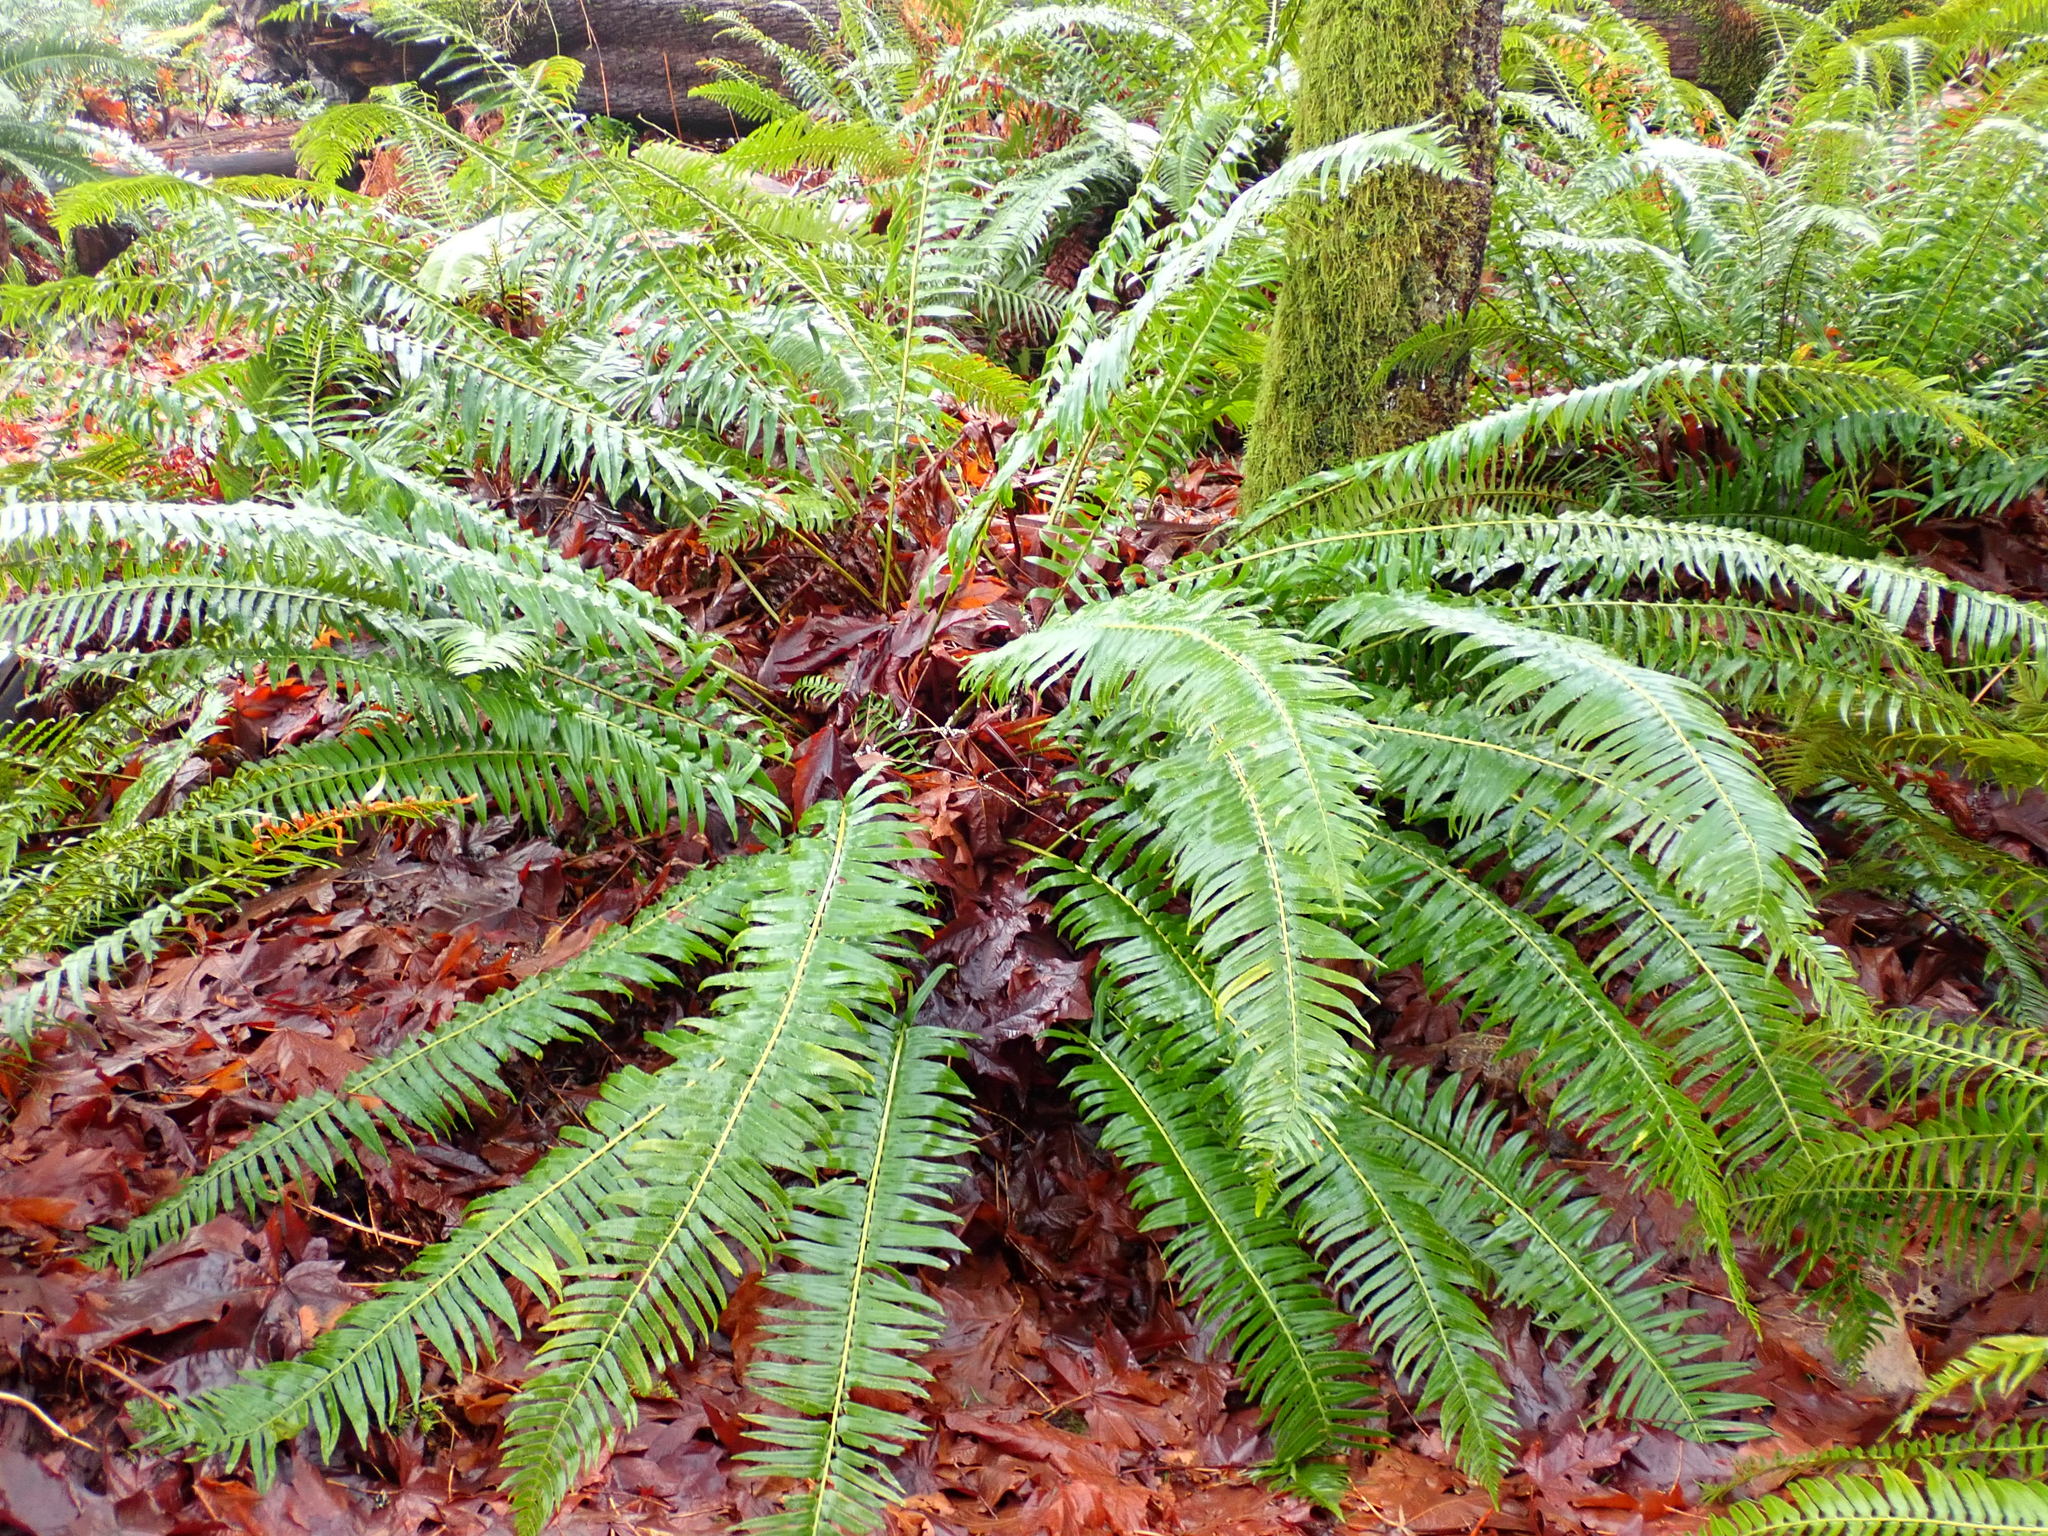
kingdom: Plantae
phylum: Tracheophyta
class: Polypodiopsida
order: Polypodiales
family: Dryopteridaceae
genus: Polystichum
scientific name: Polystichum munitum
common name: Western sword-fern
